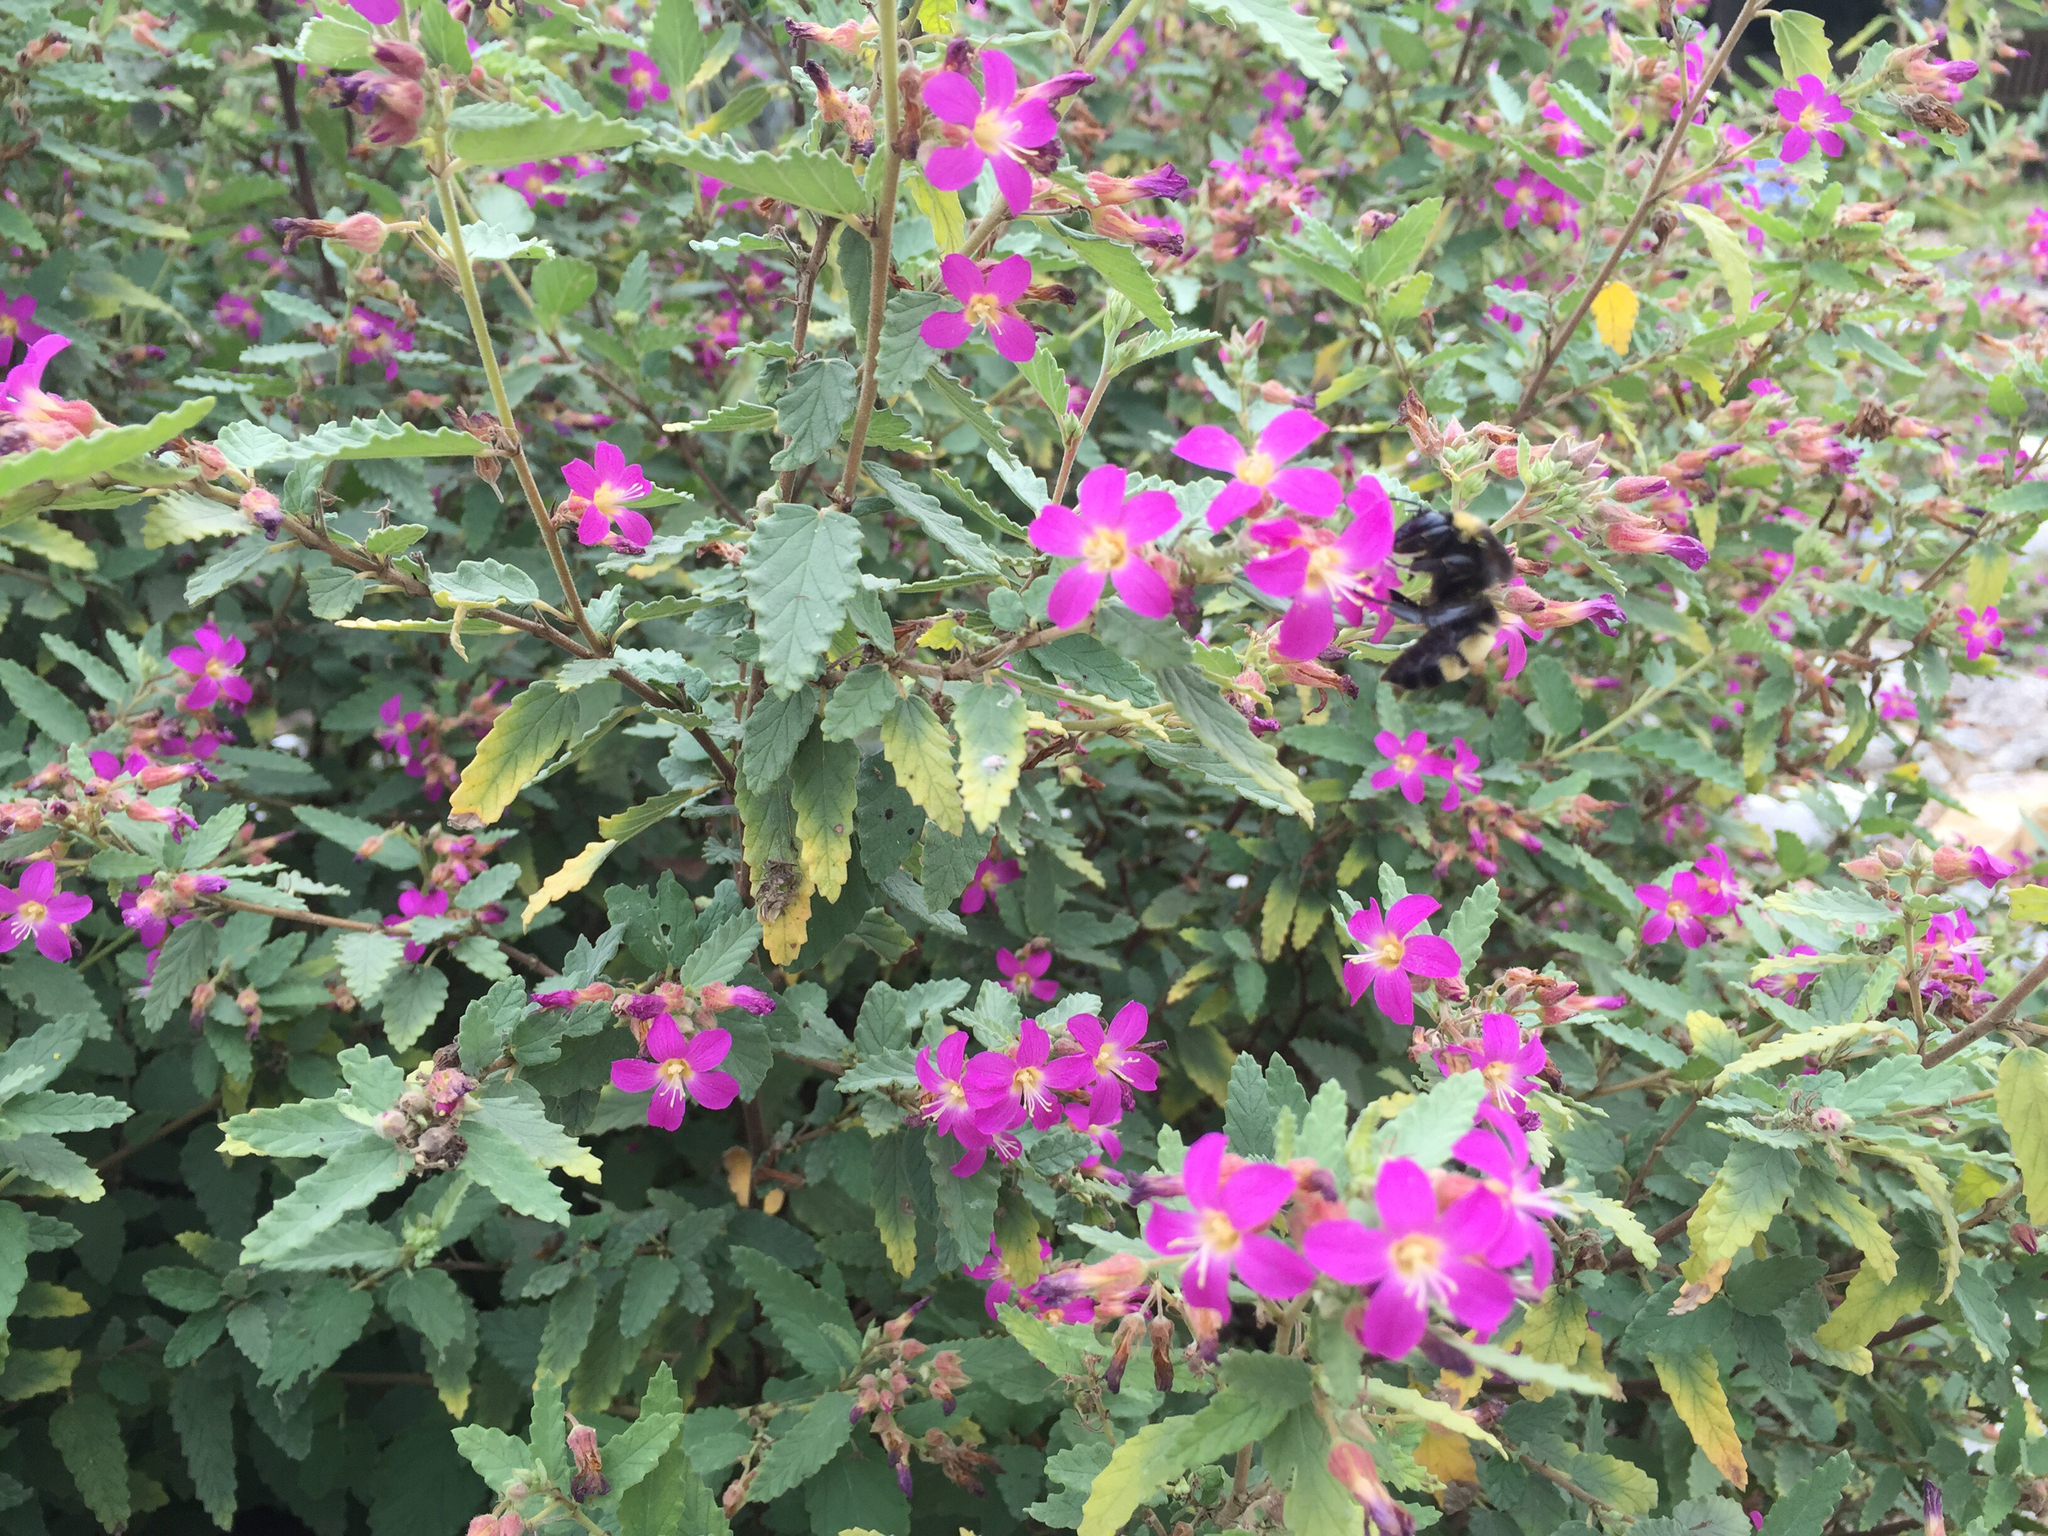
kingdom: Animalia
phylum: Arthropoda
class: Insecta
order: Hymenoptera
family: Apidae
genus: Bombus
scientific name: Bombus pensylvanicus
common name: Bumble bee
